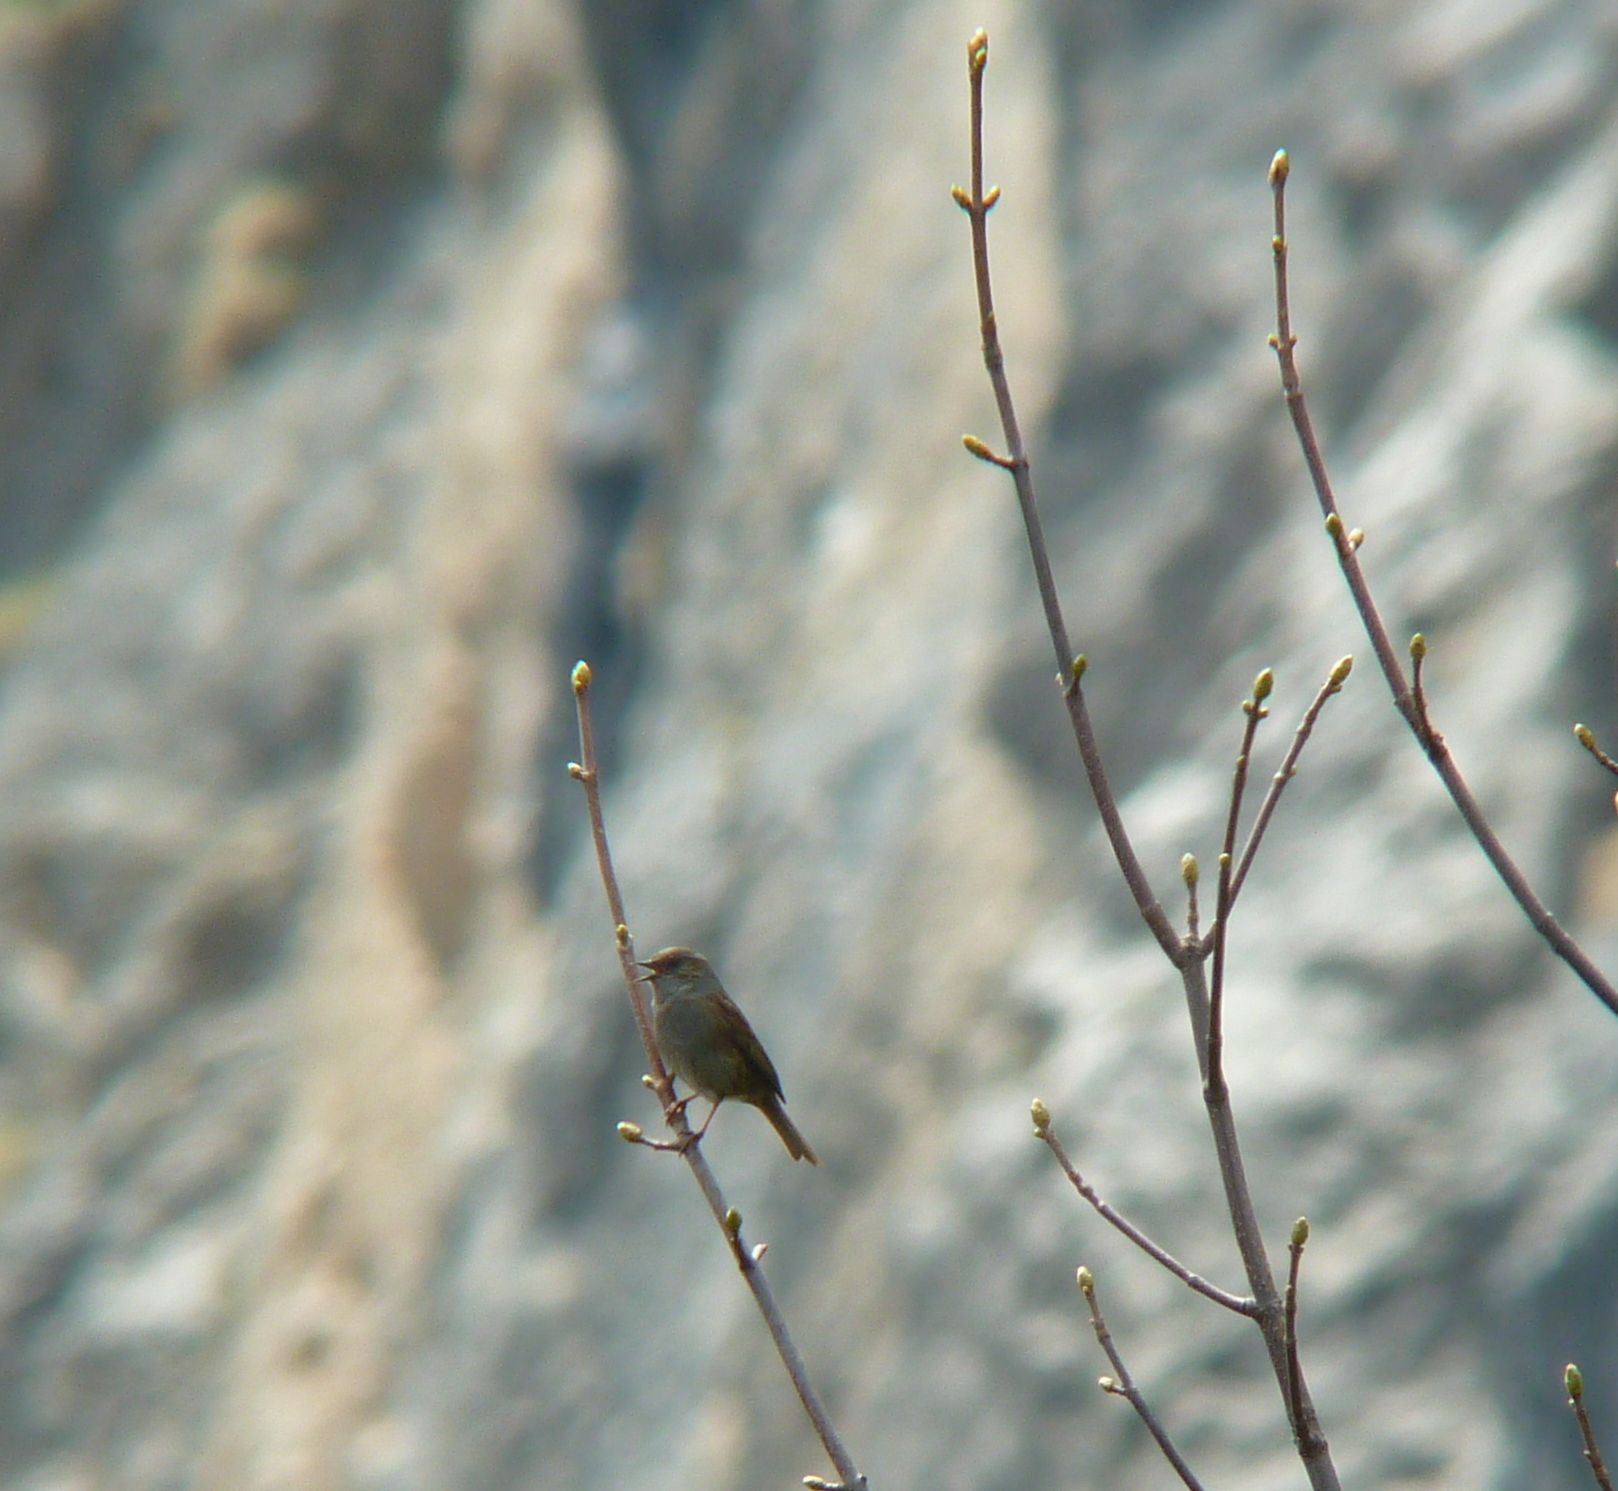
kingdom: Animalia
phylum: Chordata
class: Aves
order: Passeriformes
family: Prunellidae
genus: Prunella
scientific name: Prunella modularis
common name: Dunnock
